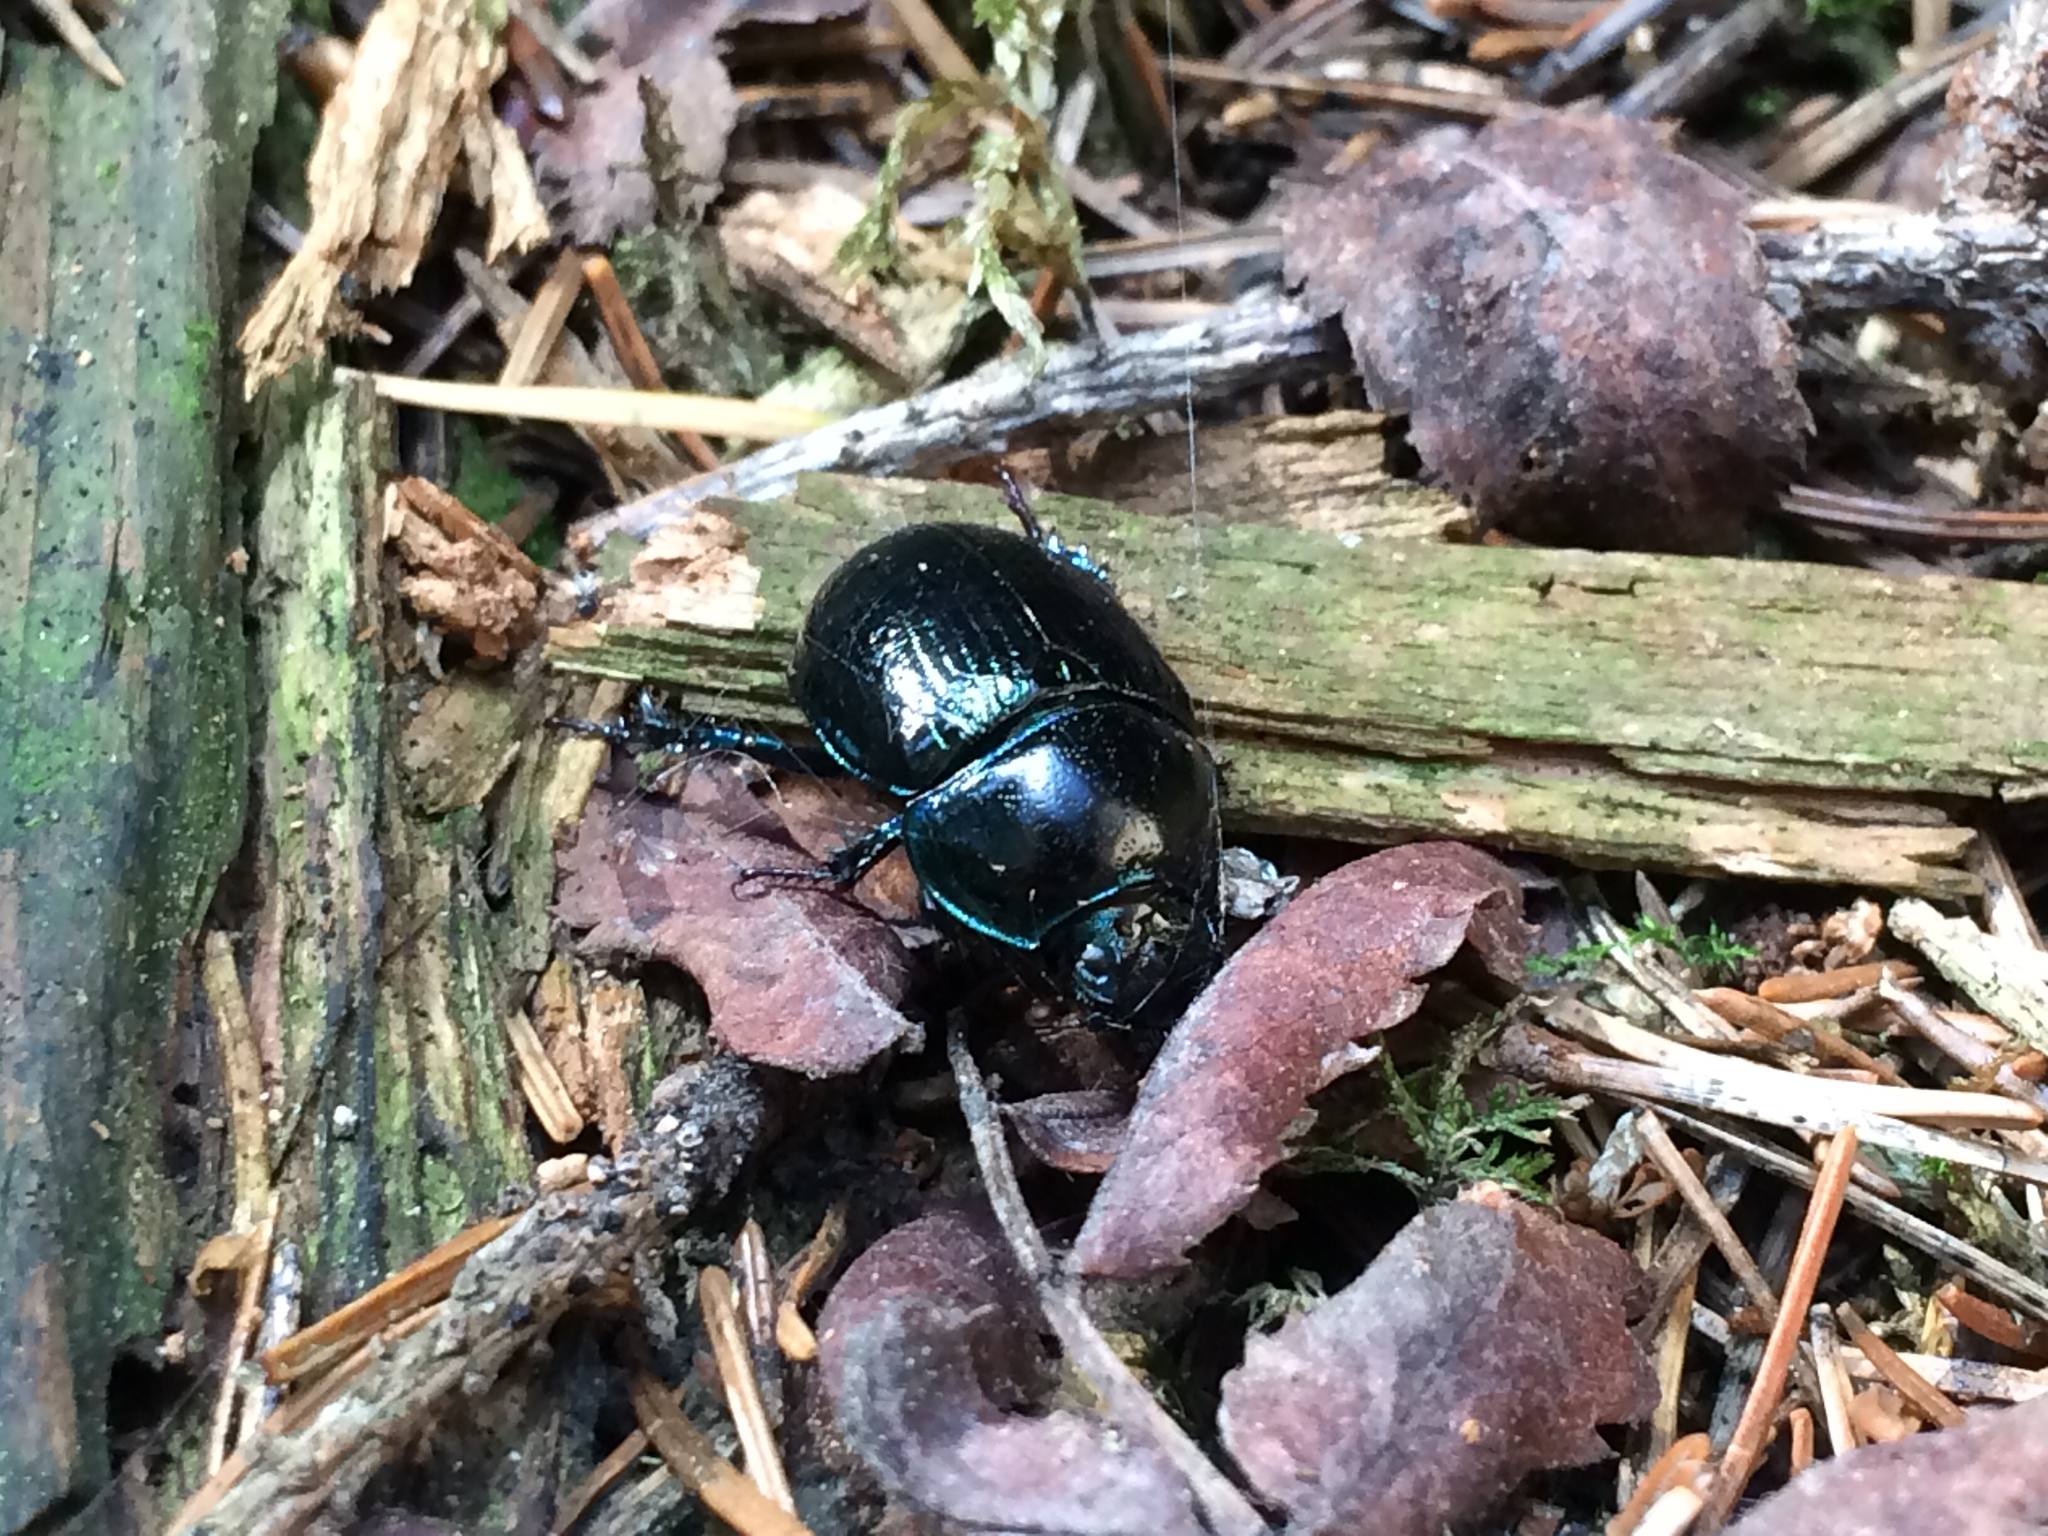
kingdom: Animalia
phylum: Arthropoda
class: Insecta
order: Coleoptera
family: Geotrupidae
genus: Anoplotrupes
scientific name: Anoplotrupes stercorosus
